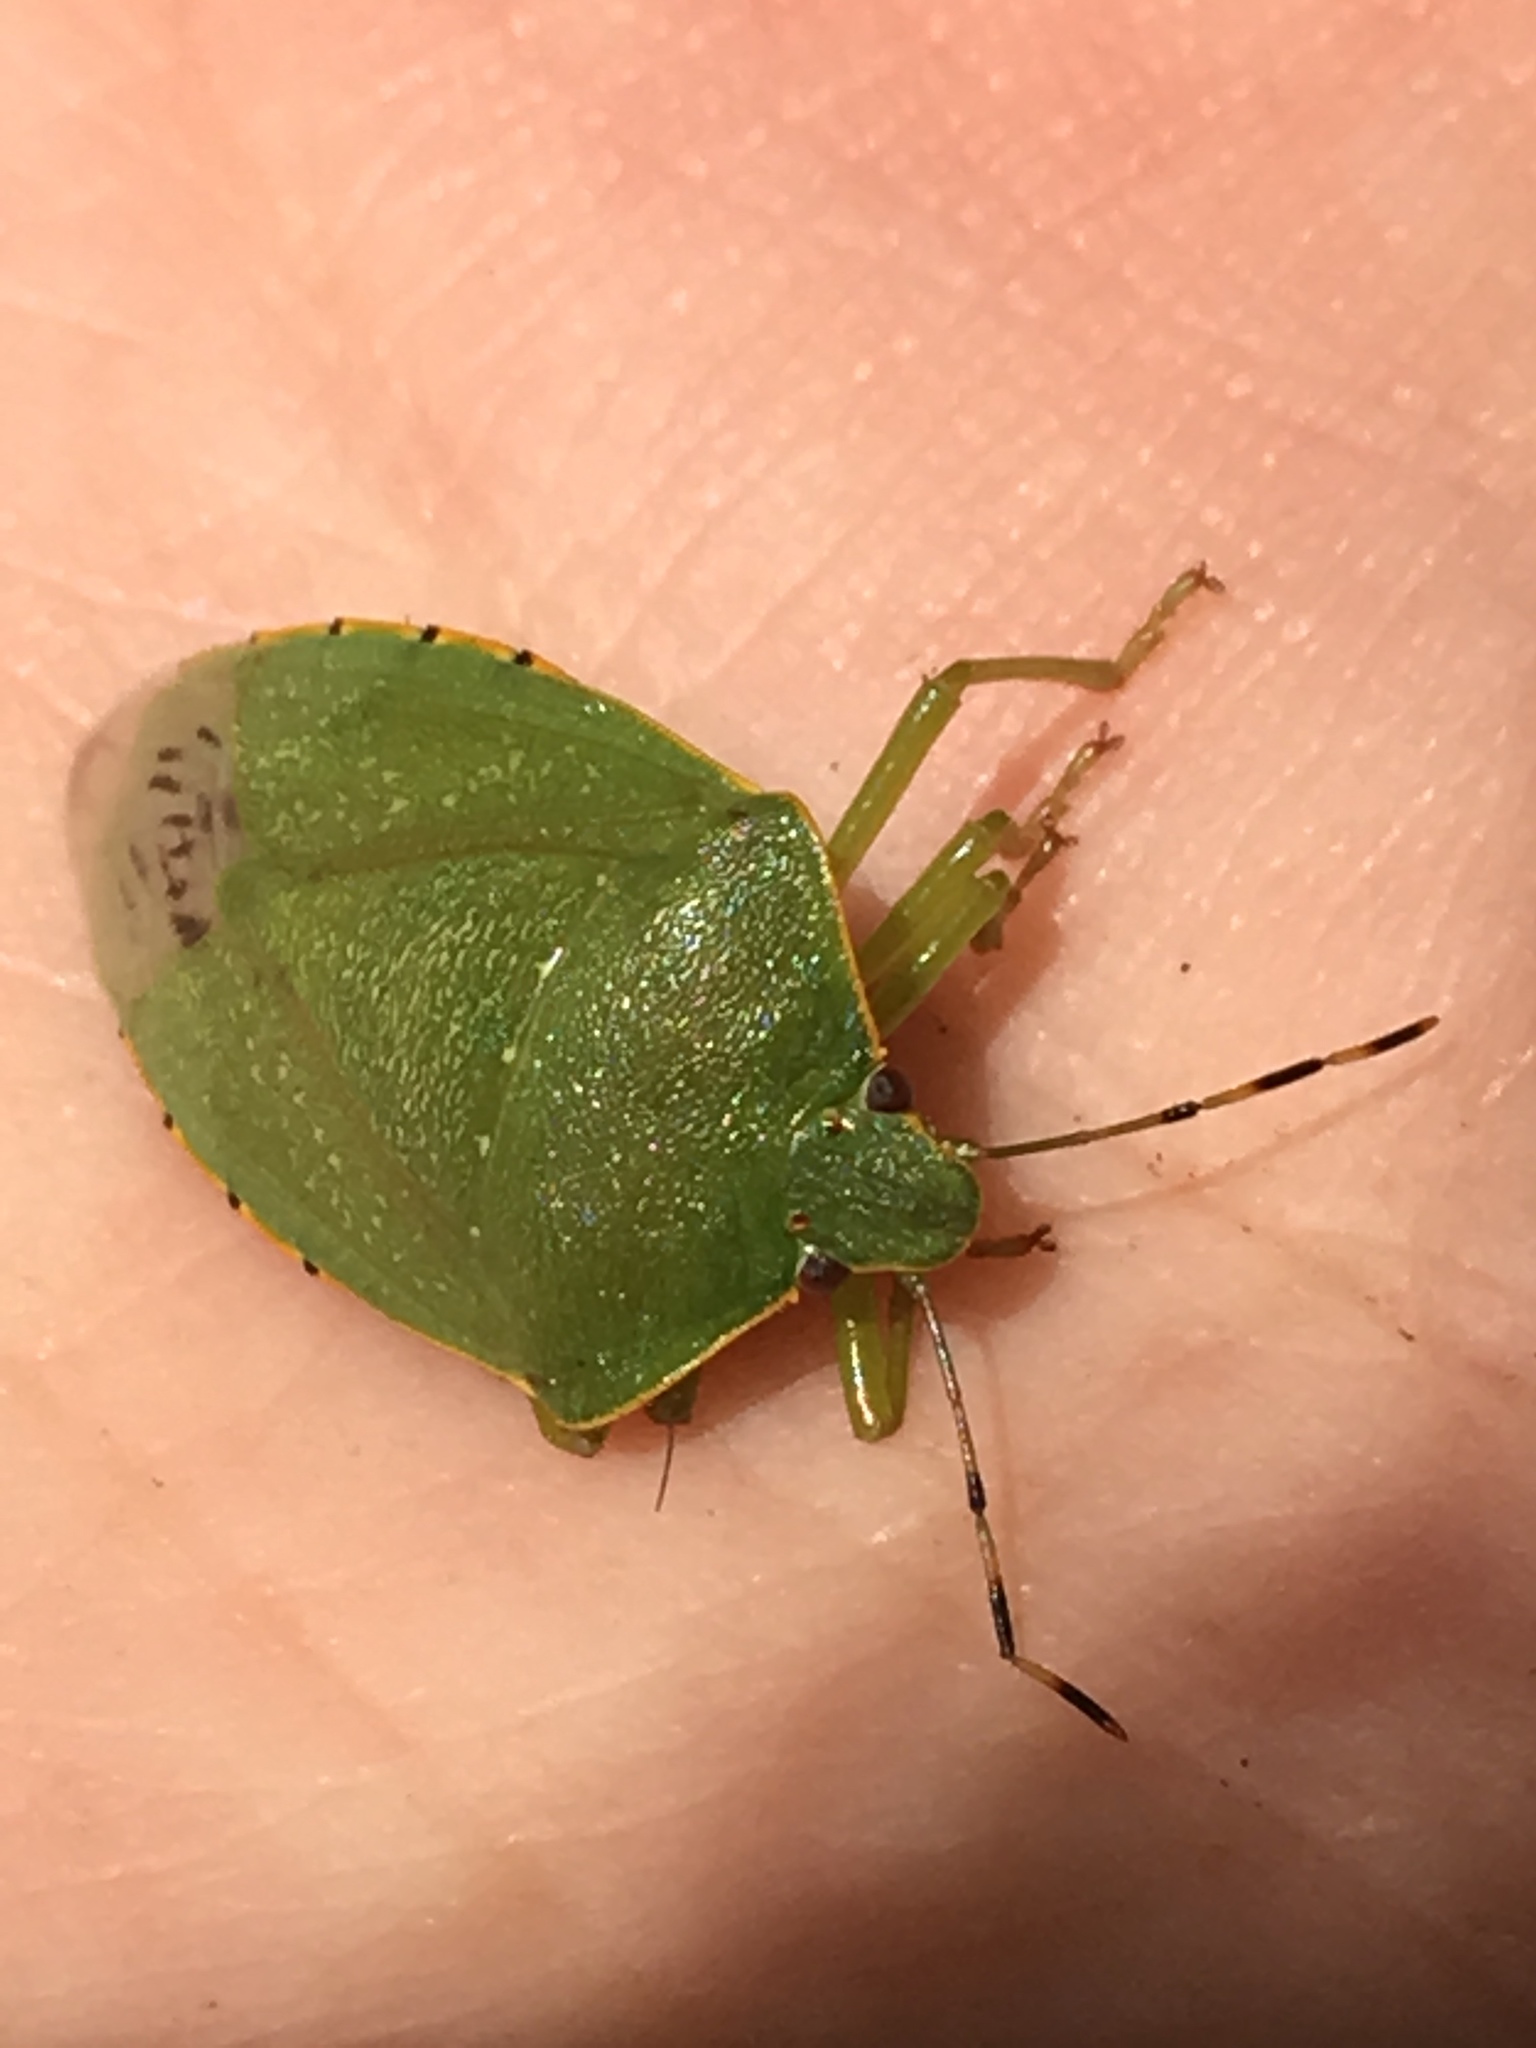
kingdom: Animalia
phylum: Arthropoda
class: Insecta
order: Hemiptera
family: Pentatomidae
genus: Chinavia
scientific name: Chinavia hilaris
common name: Green stink bug
